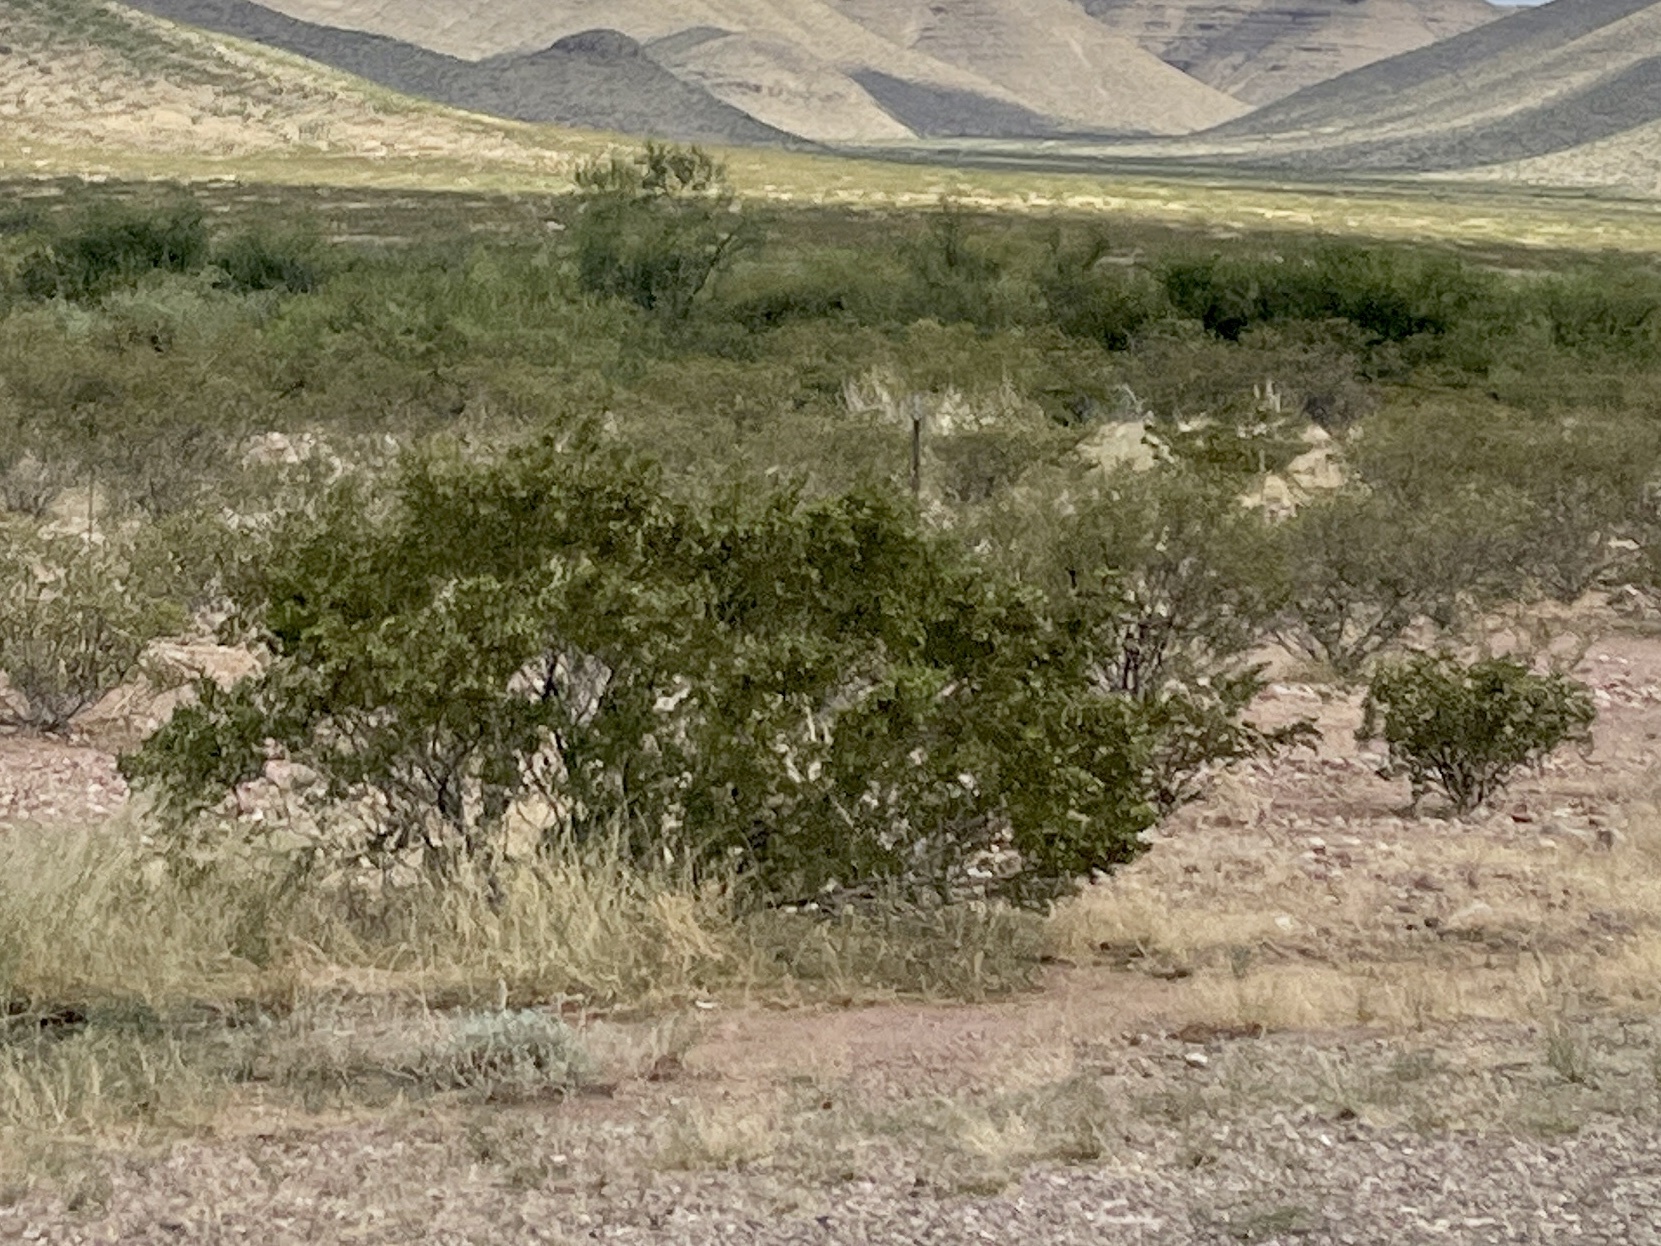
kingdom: Plantae
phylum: Tracheophyta
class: Magnoliopsida
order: Zygophyllales
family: Zygophyllaceae
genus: Larrea
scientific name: Larrea tridentata
